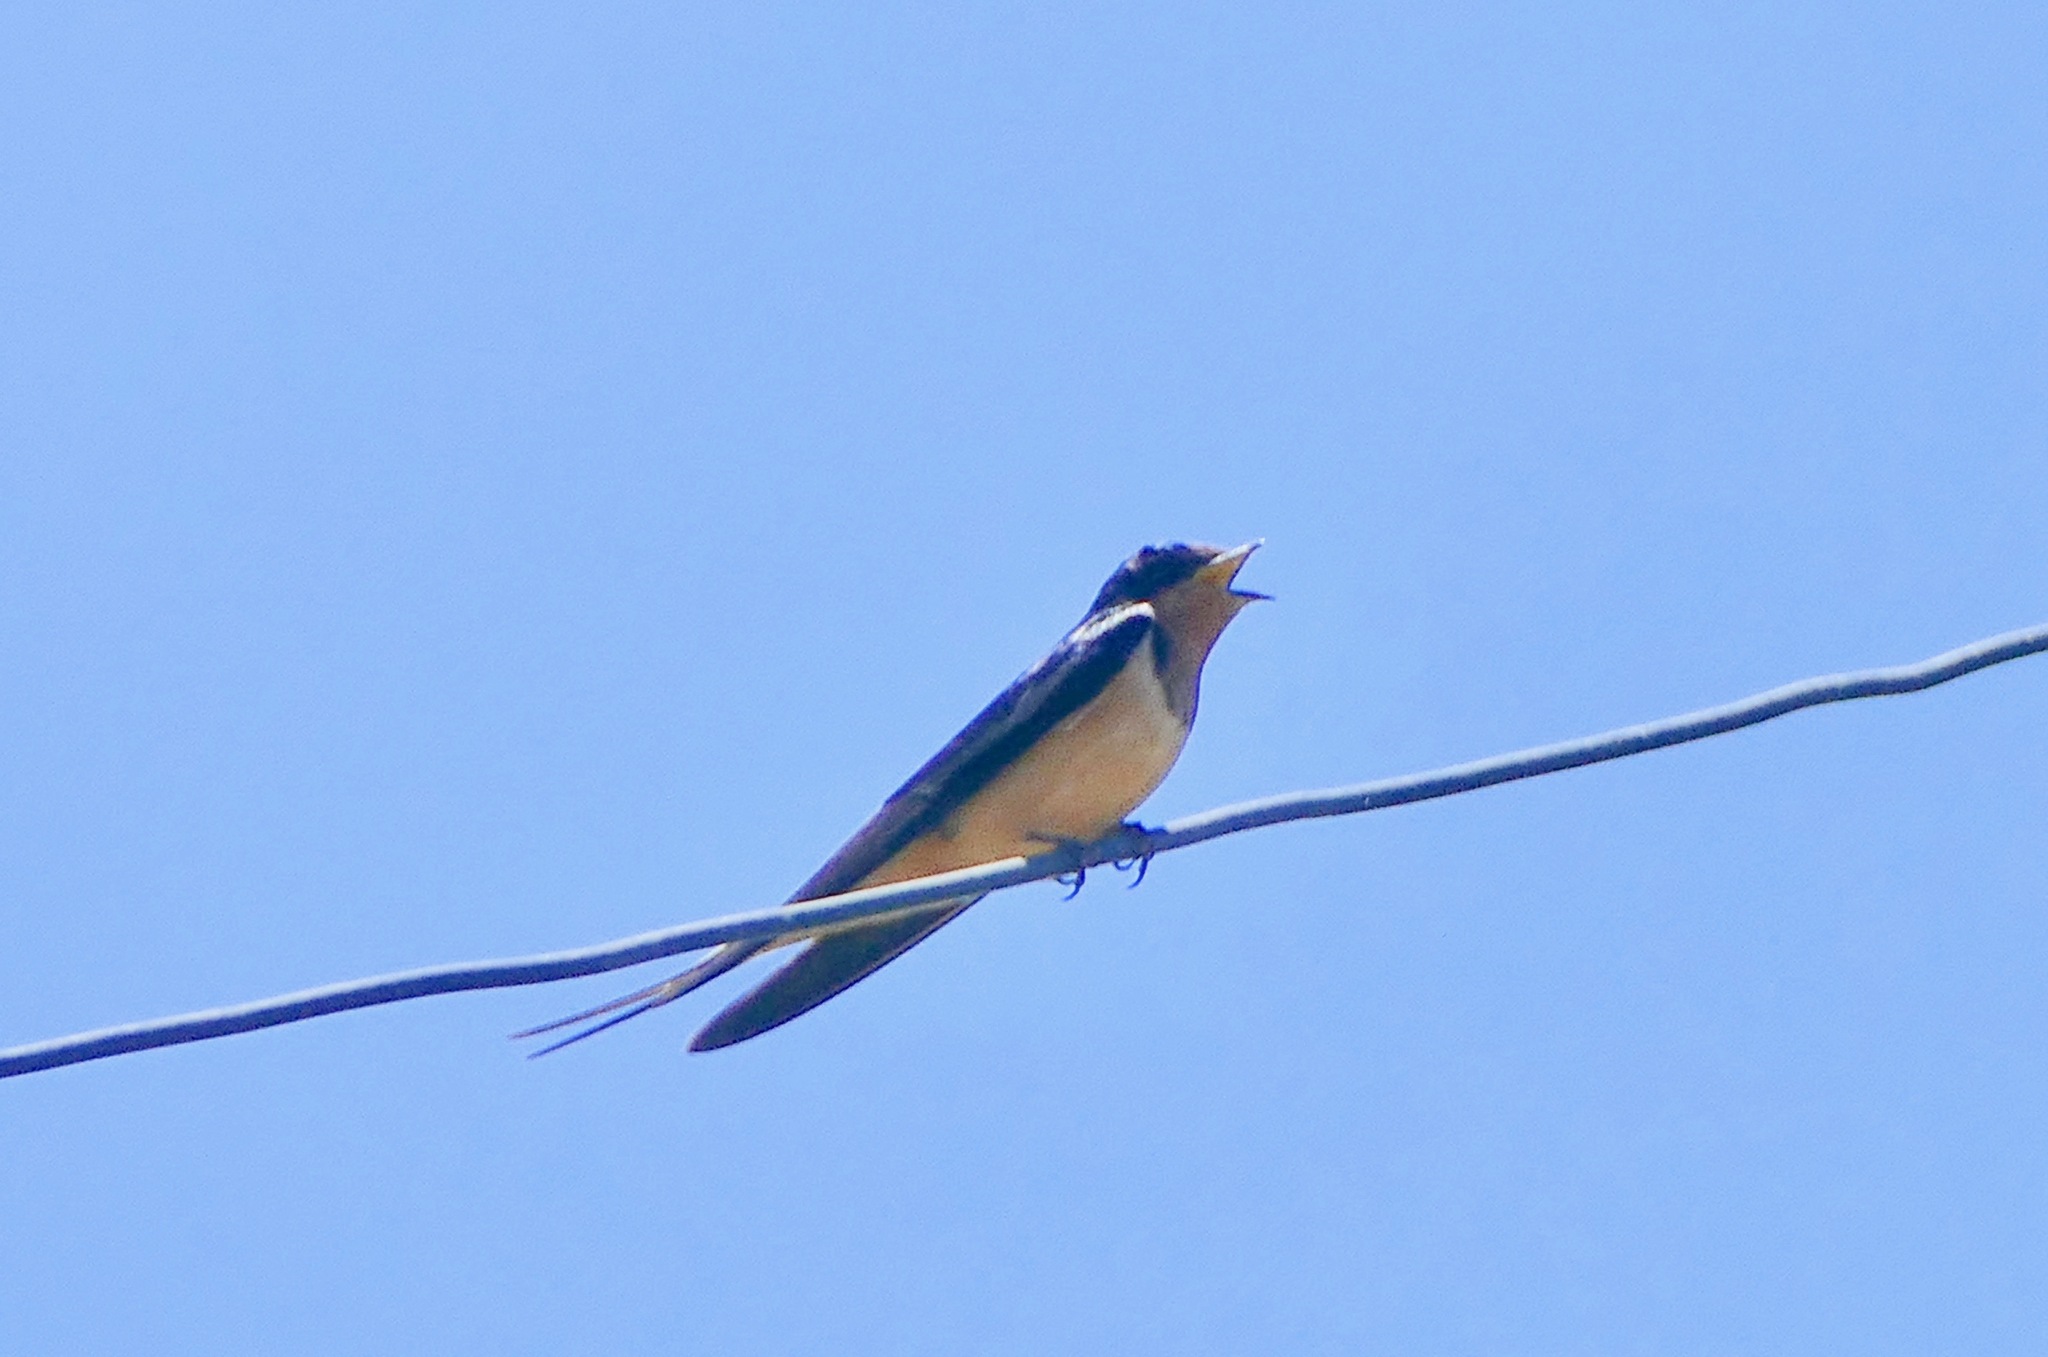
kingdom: Animalia
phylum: Chordata
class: Aves
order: Passeriformes
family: Hirundinidae
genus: Hirundo
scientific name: Hirundo rustica
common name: Barn swallow
